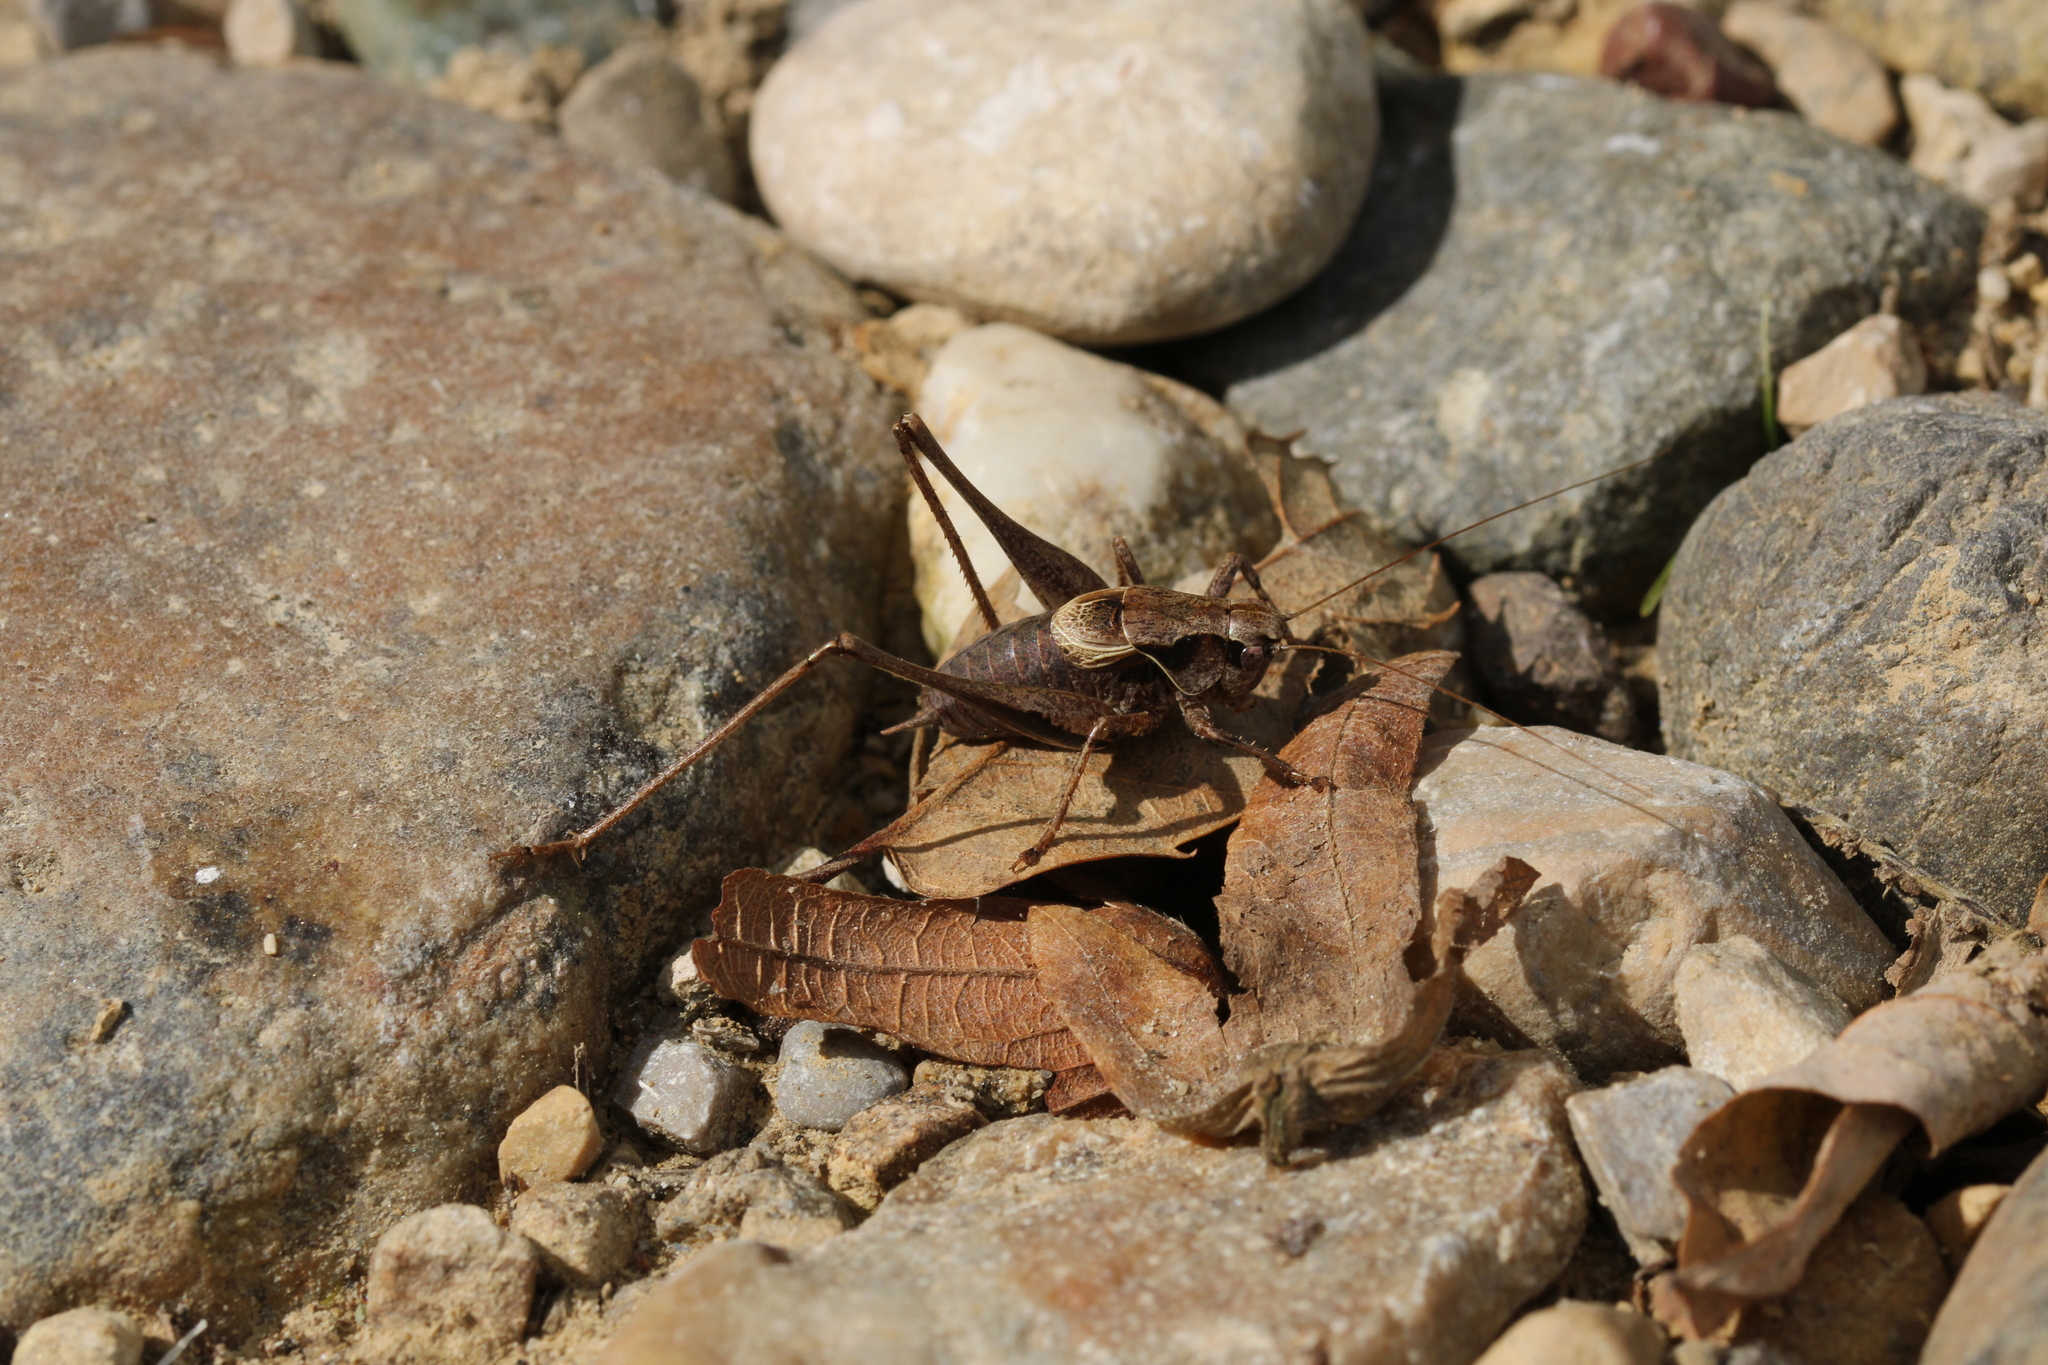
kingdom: Animalia
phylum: Arthropoda
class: Insecta
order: Orthoptera
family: Tettigoniidae
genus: Pholidoptera
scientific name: Pholidoptera griseoaptera
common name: Dark bush-cricket
